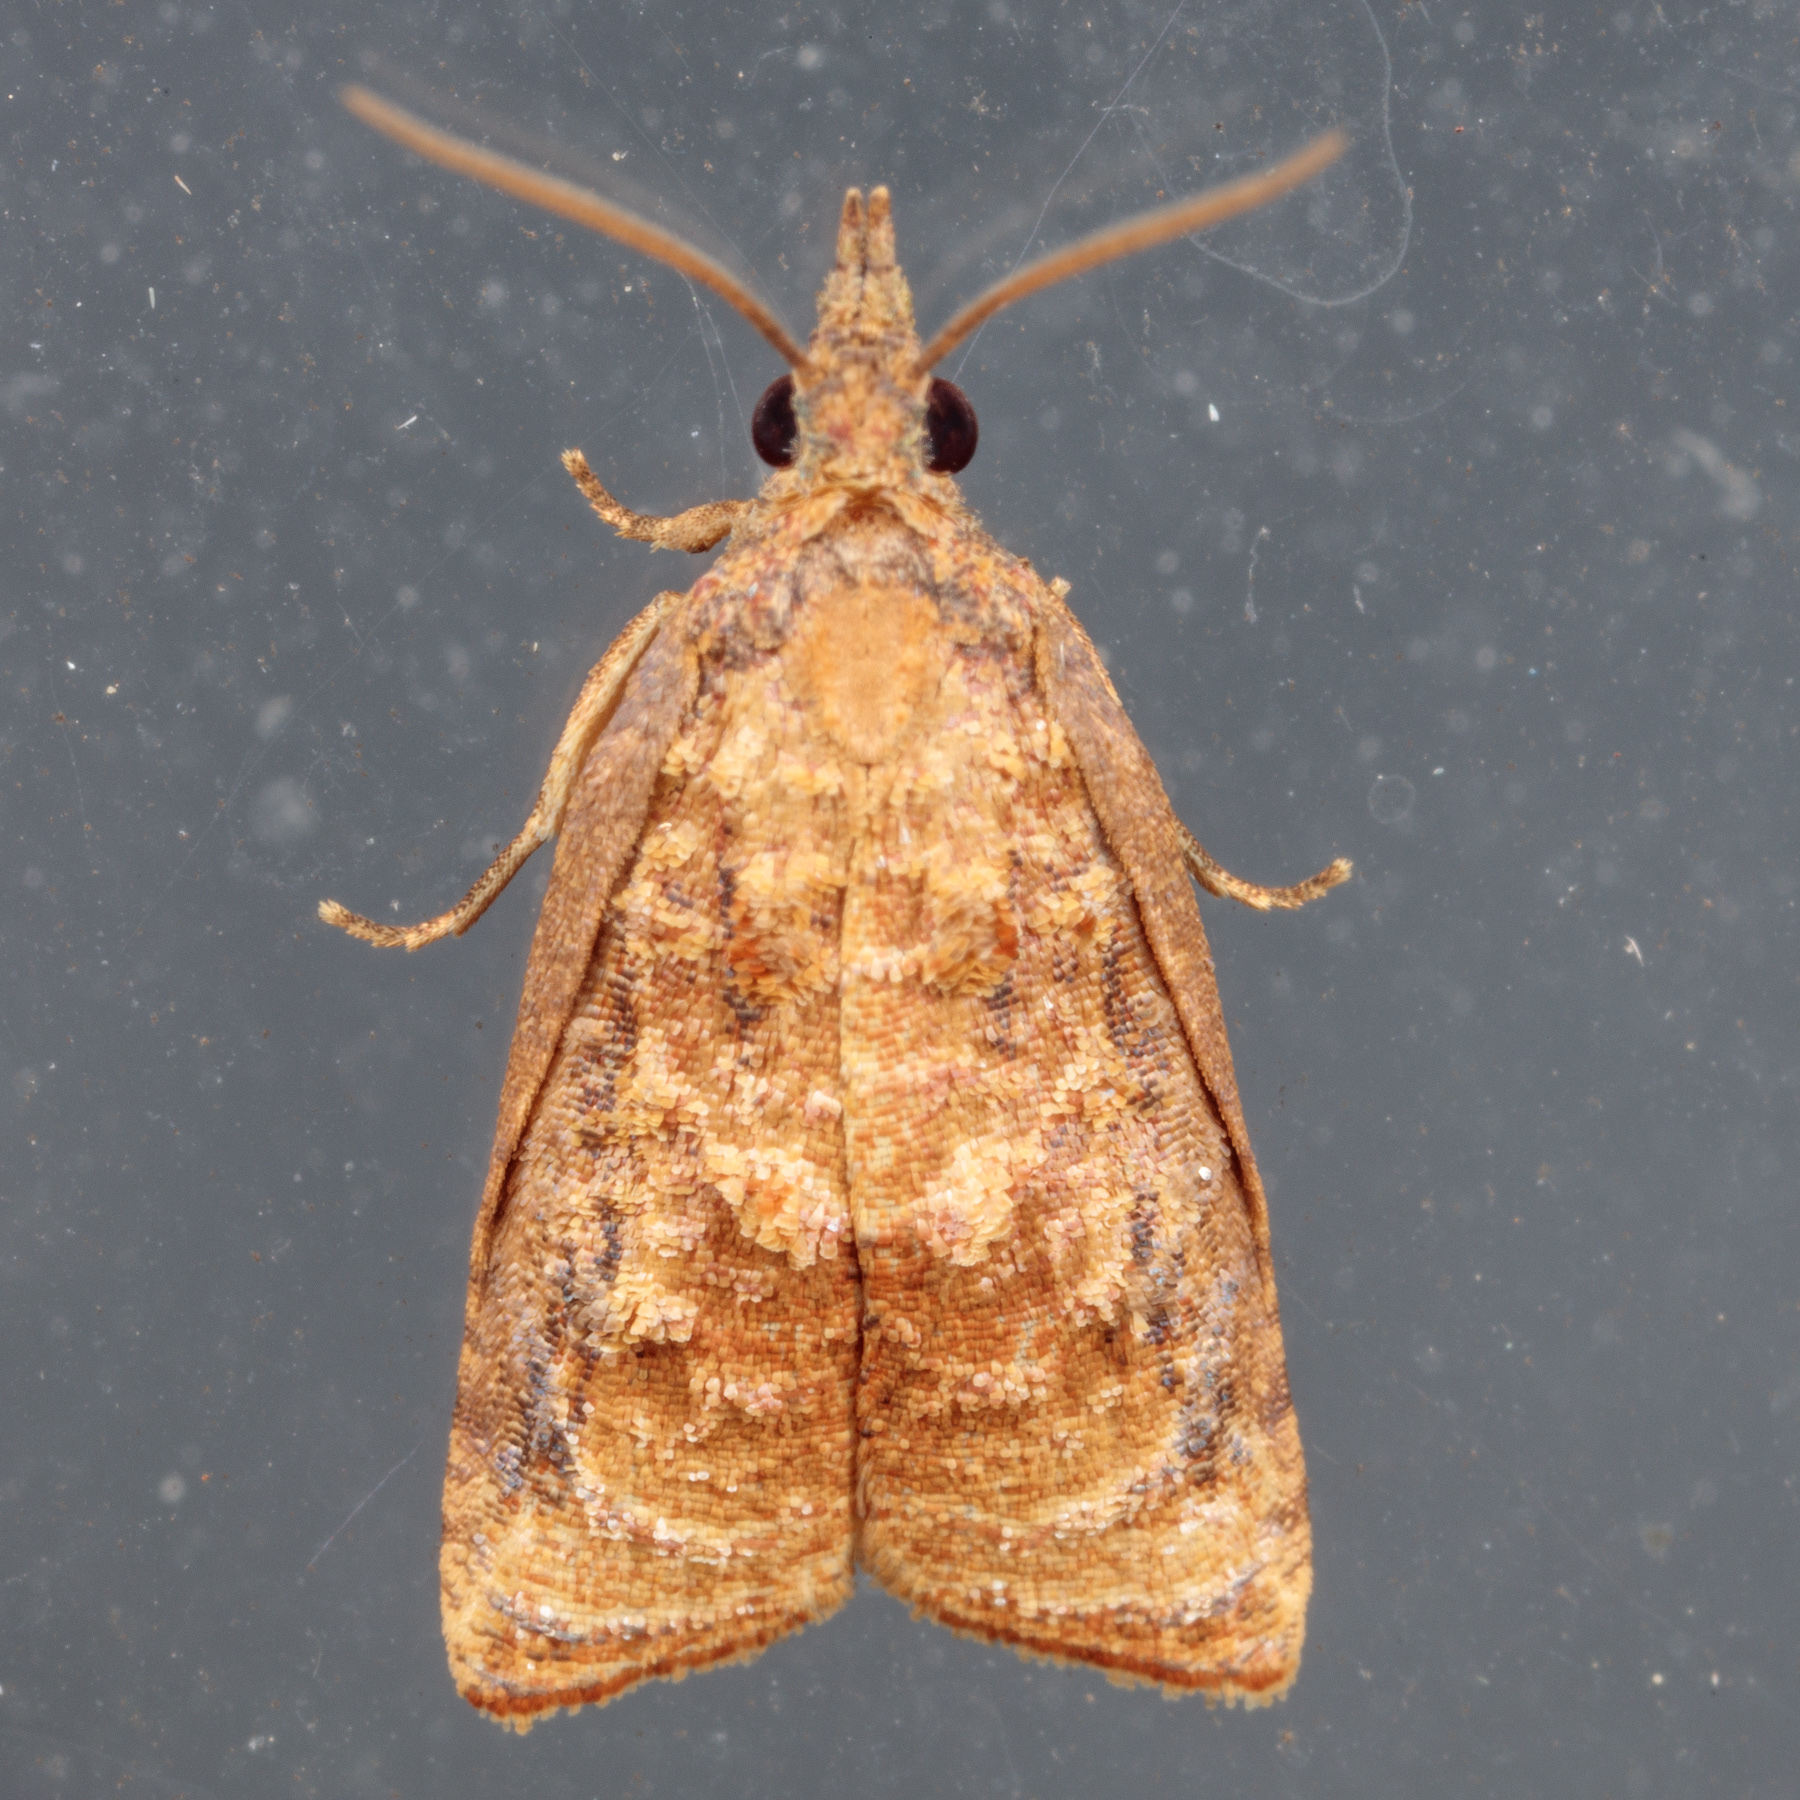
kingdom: Animalia
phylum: Arthropoda
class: Insecta
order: Lepidoptera
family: Tortricidae
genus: Platynota
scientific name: Platynota rostrana
